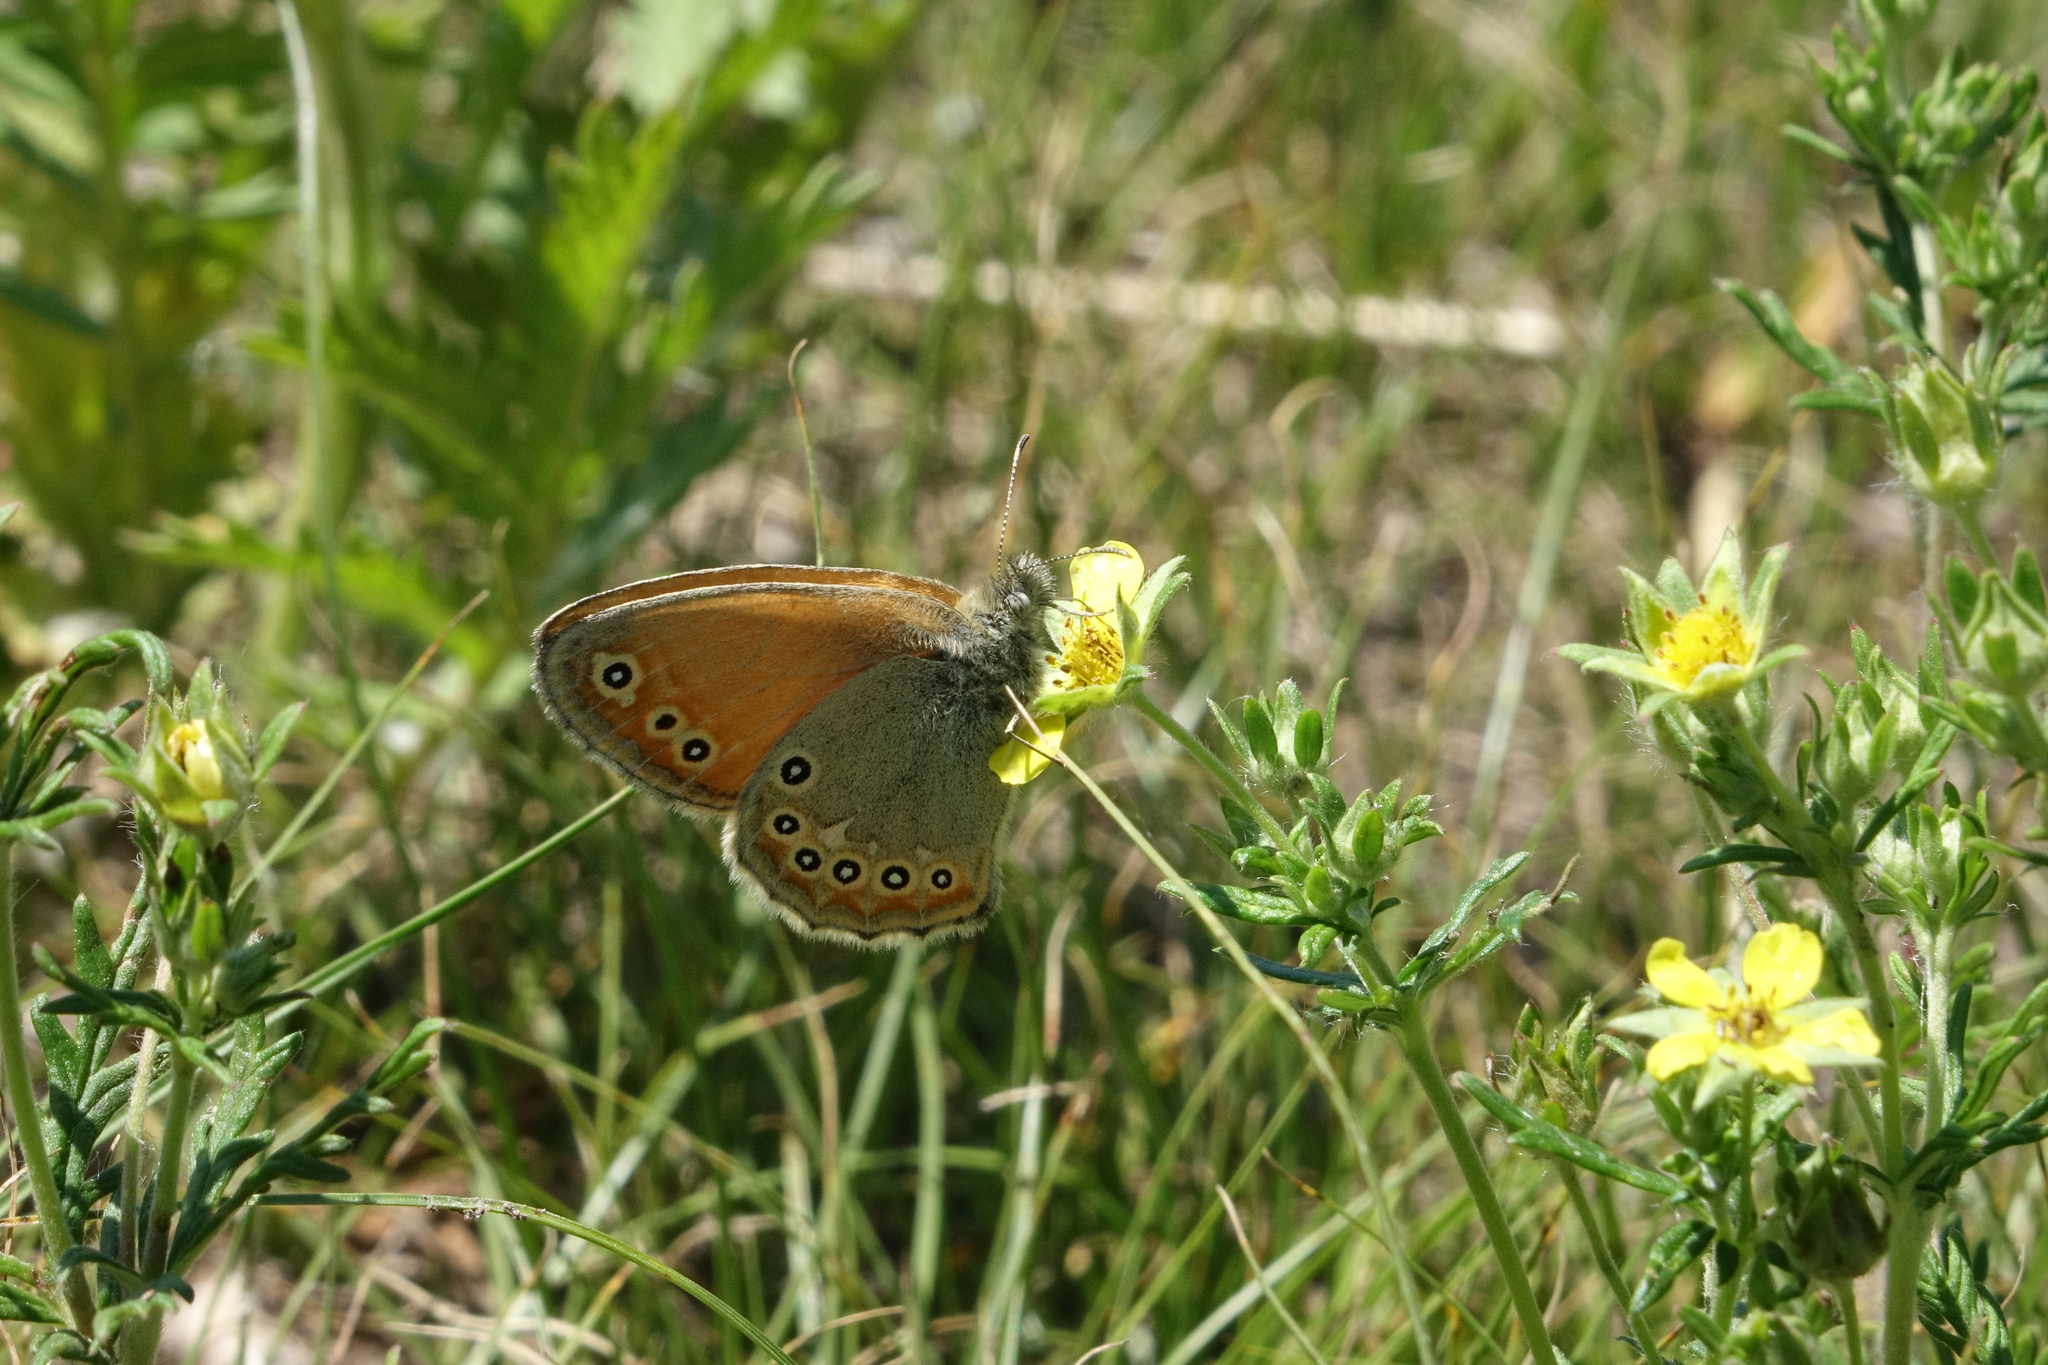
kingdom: Animalia
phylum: Arthropoda
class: Insecta
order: Lepidoptera
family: Nymphalidae
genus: Coenonympha
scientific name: Coenonympha amaryllis
